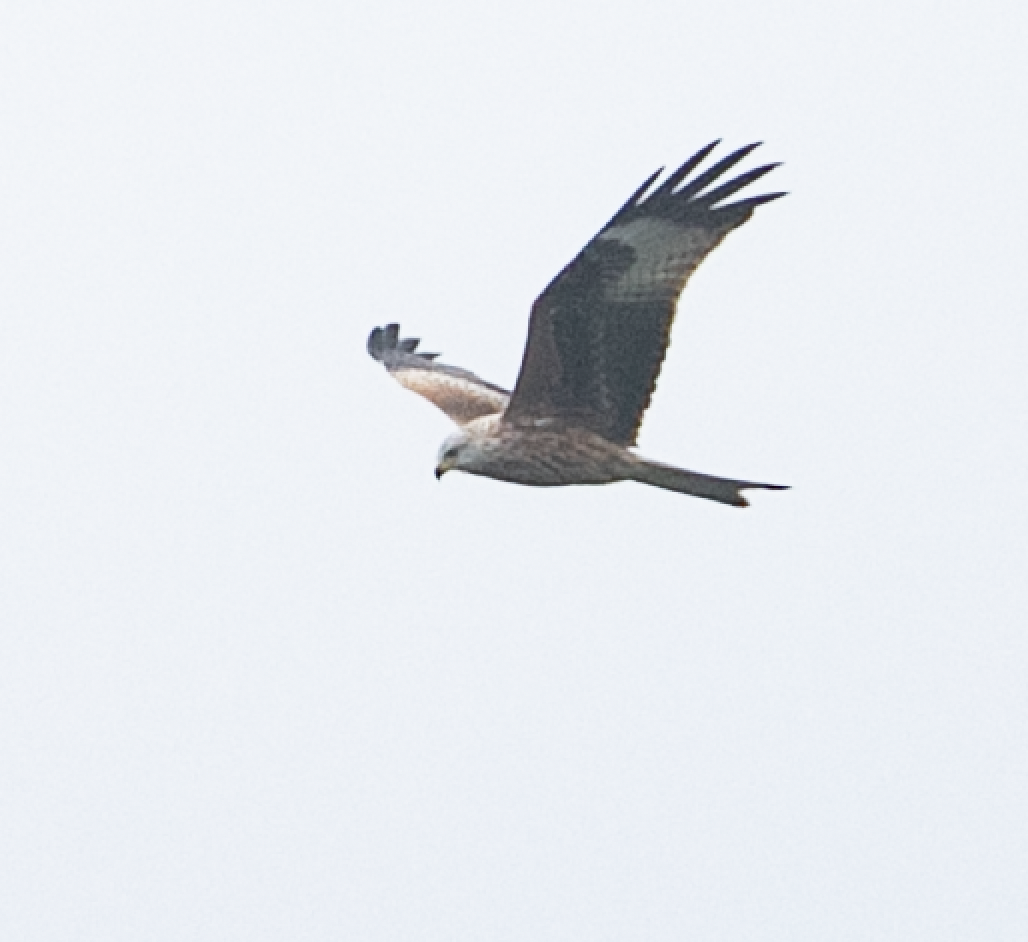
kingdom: Animalia
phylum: Chordata
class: Aves
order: Accipitriformes
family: Accipitridae
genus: Milvus
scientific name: Milvus milvus
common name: Red kite
